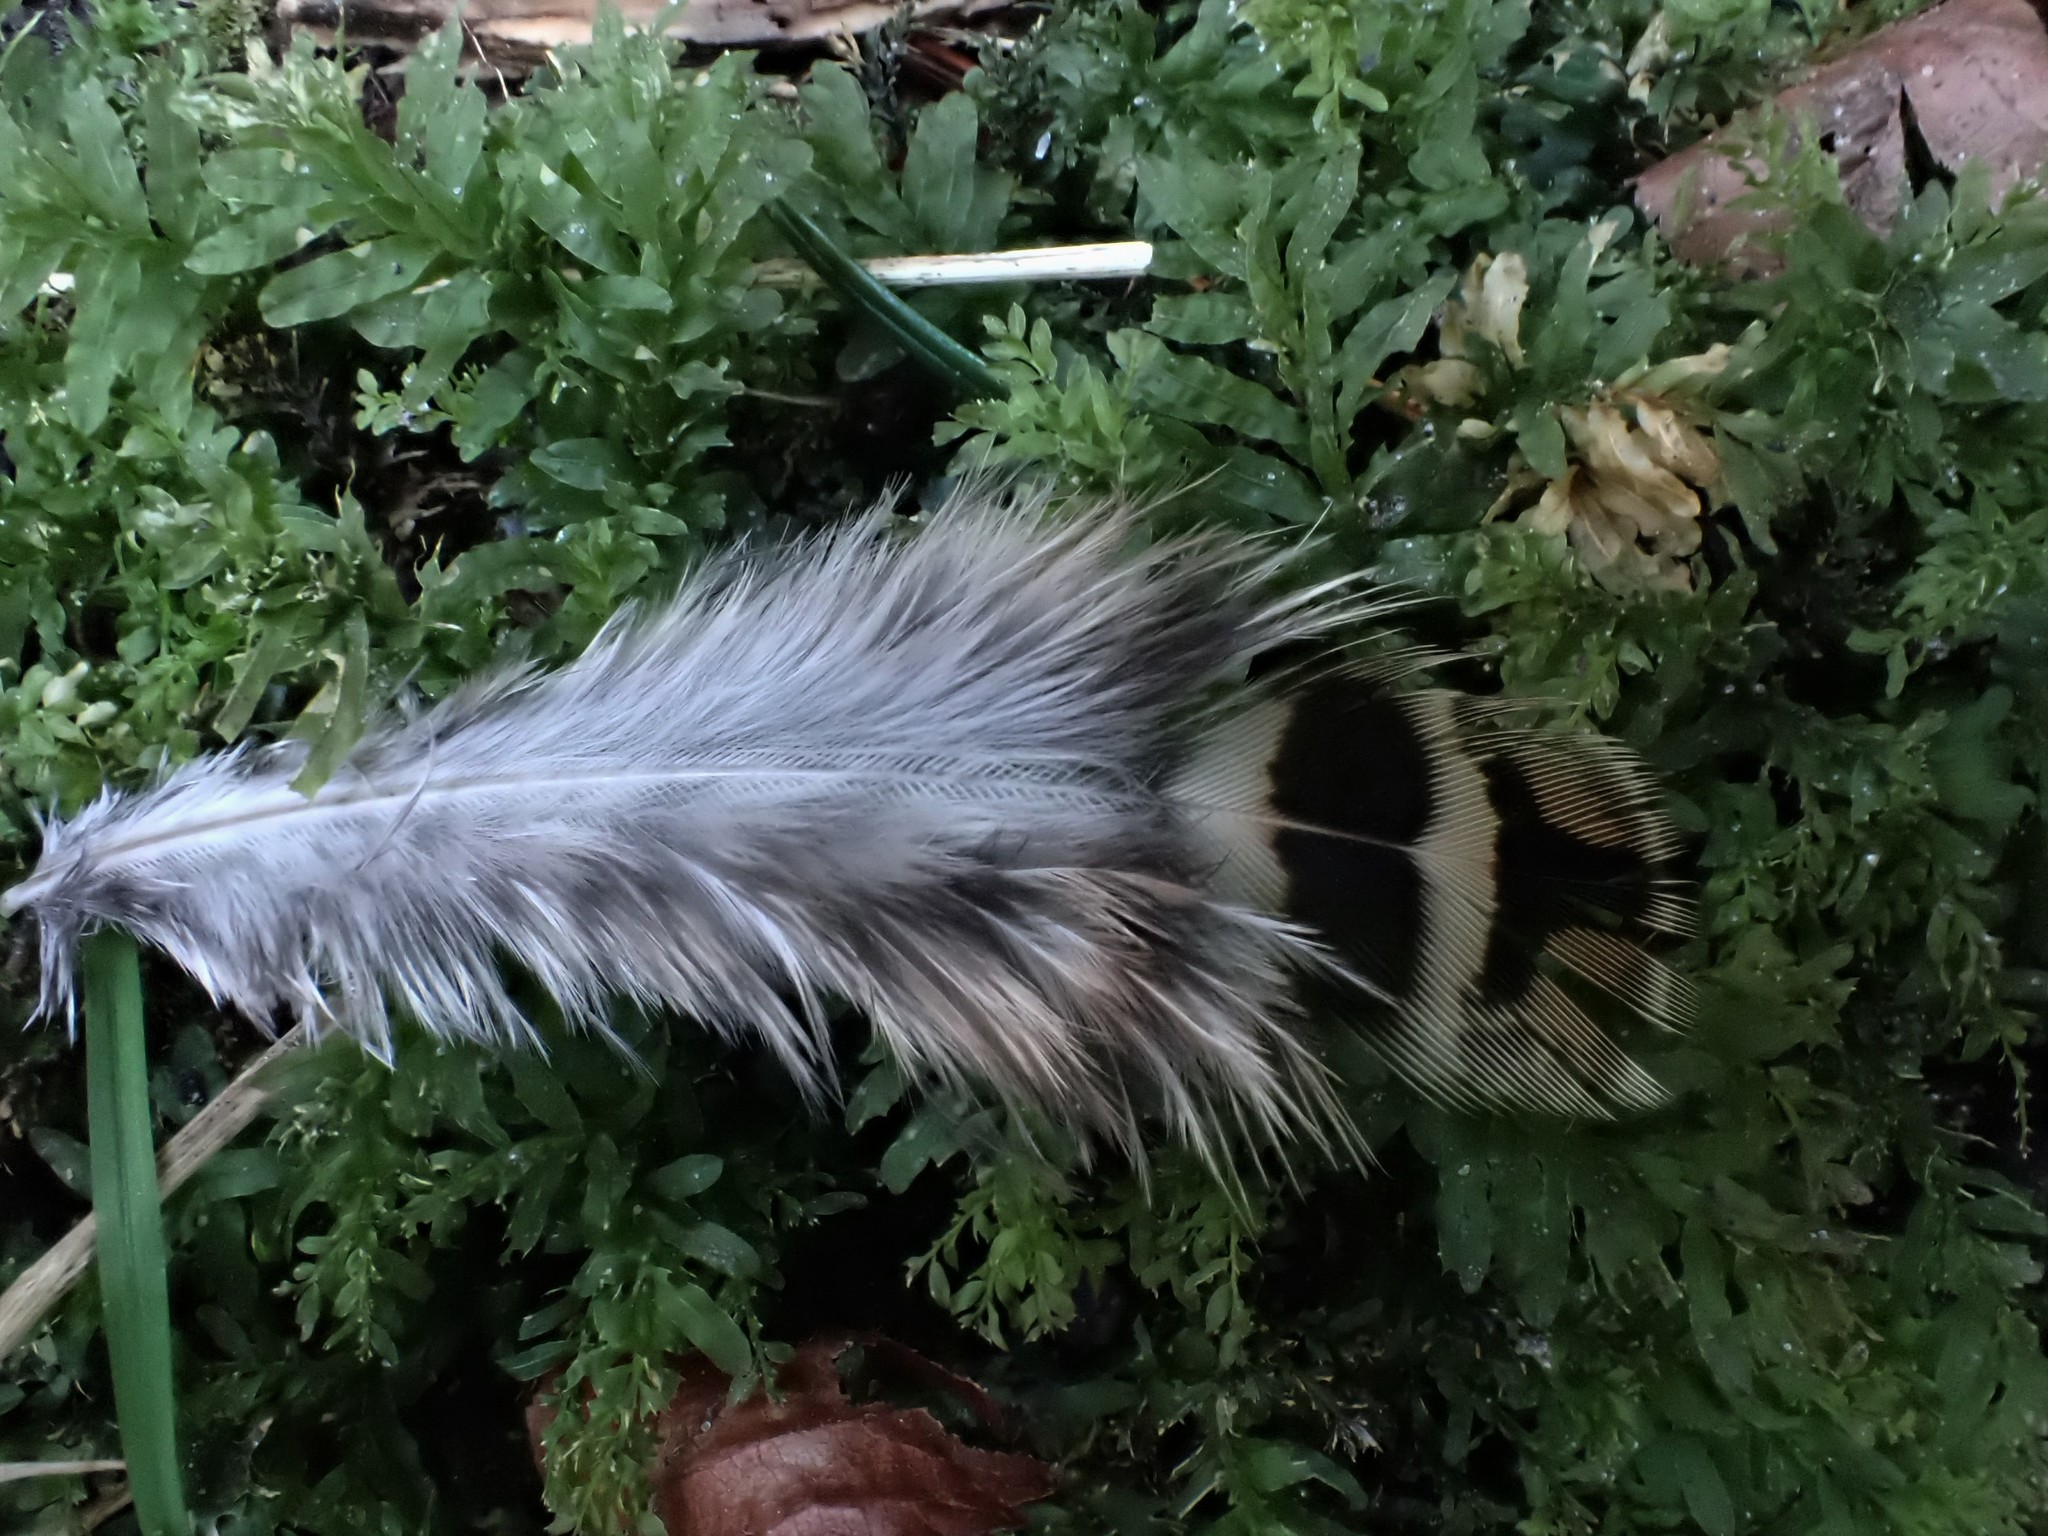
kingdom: Animalia
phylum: Chordata
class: Aves
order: Galliformes
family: Phasianidae
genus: Phasianus
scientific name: Phasianus colchicus
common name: Common pheasant
